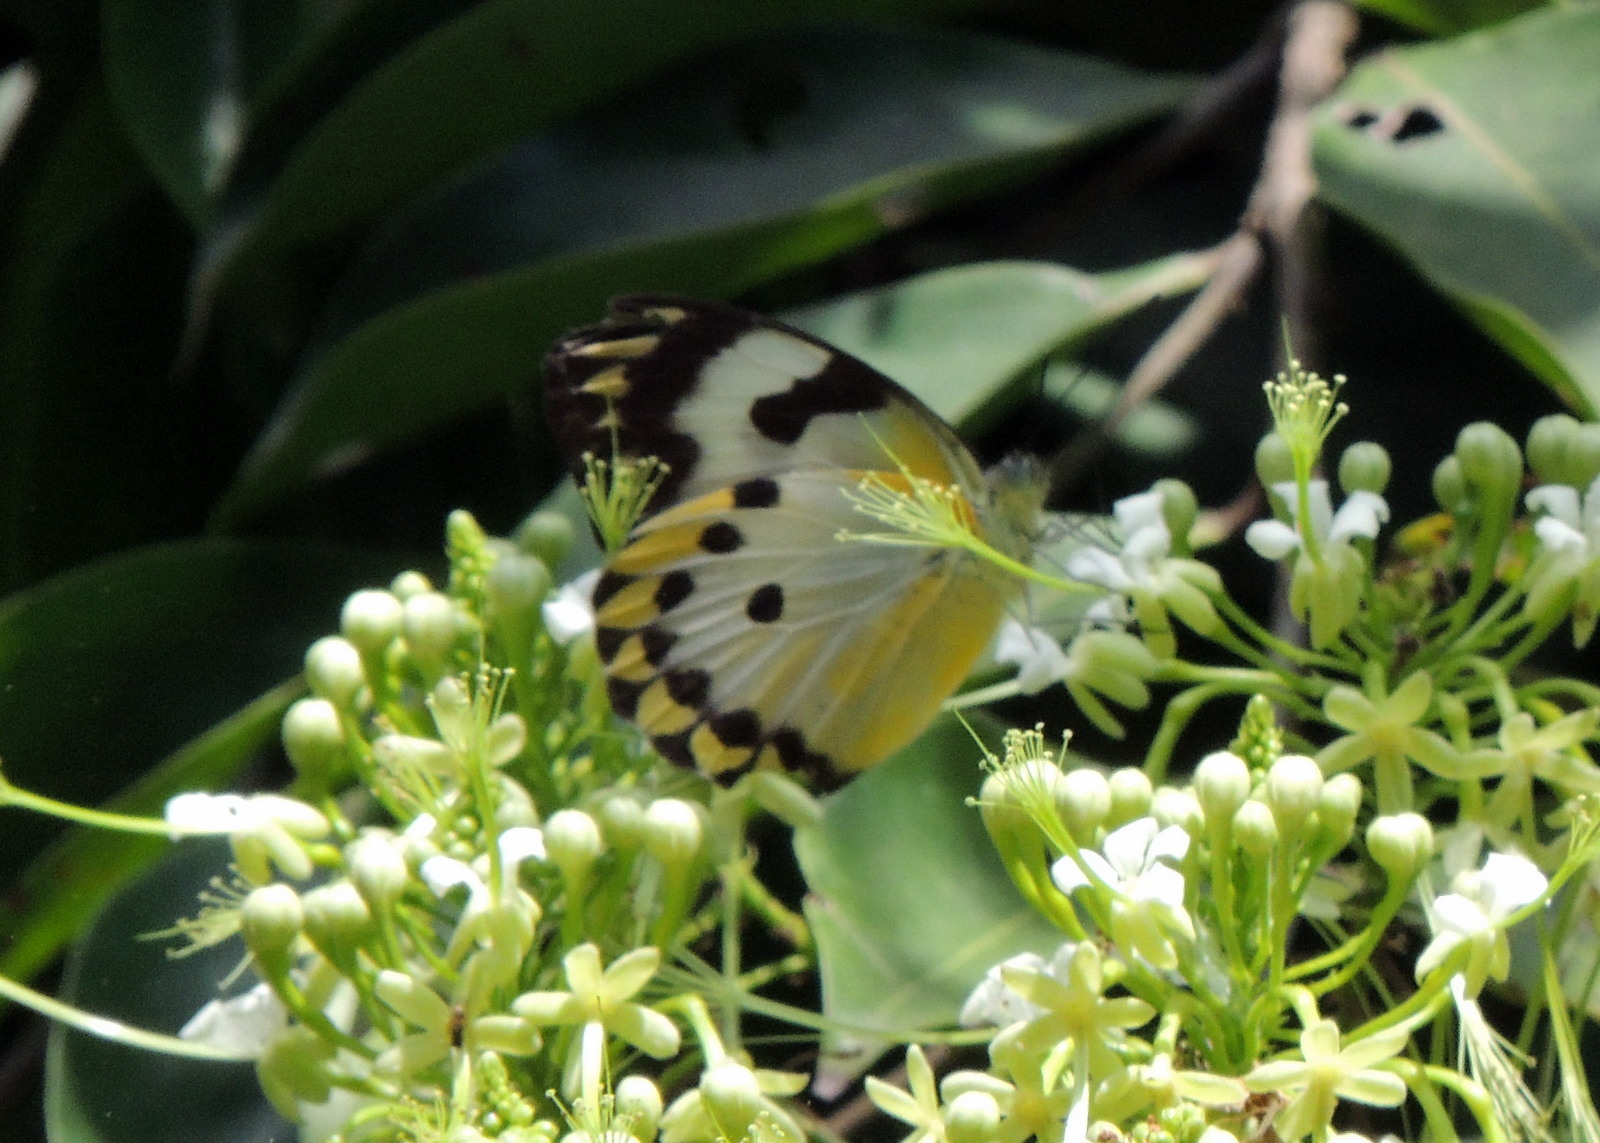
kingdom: Animalia
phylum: Arthropoda
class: Insecta
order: Lepidoptera
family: Pieridae
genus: Belenois
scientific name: Belenois calypso
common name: Calypso caper white
